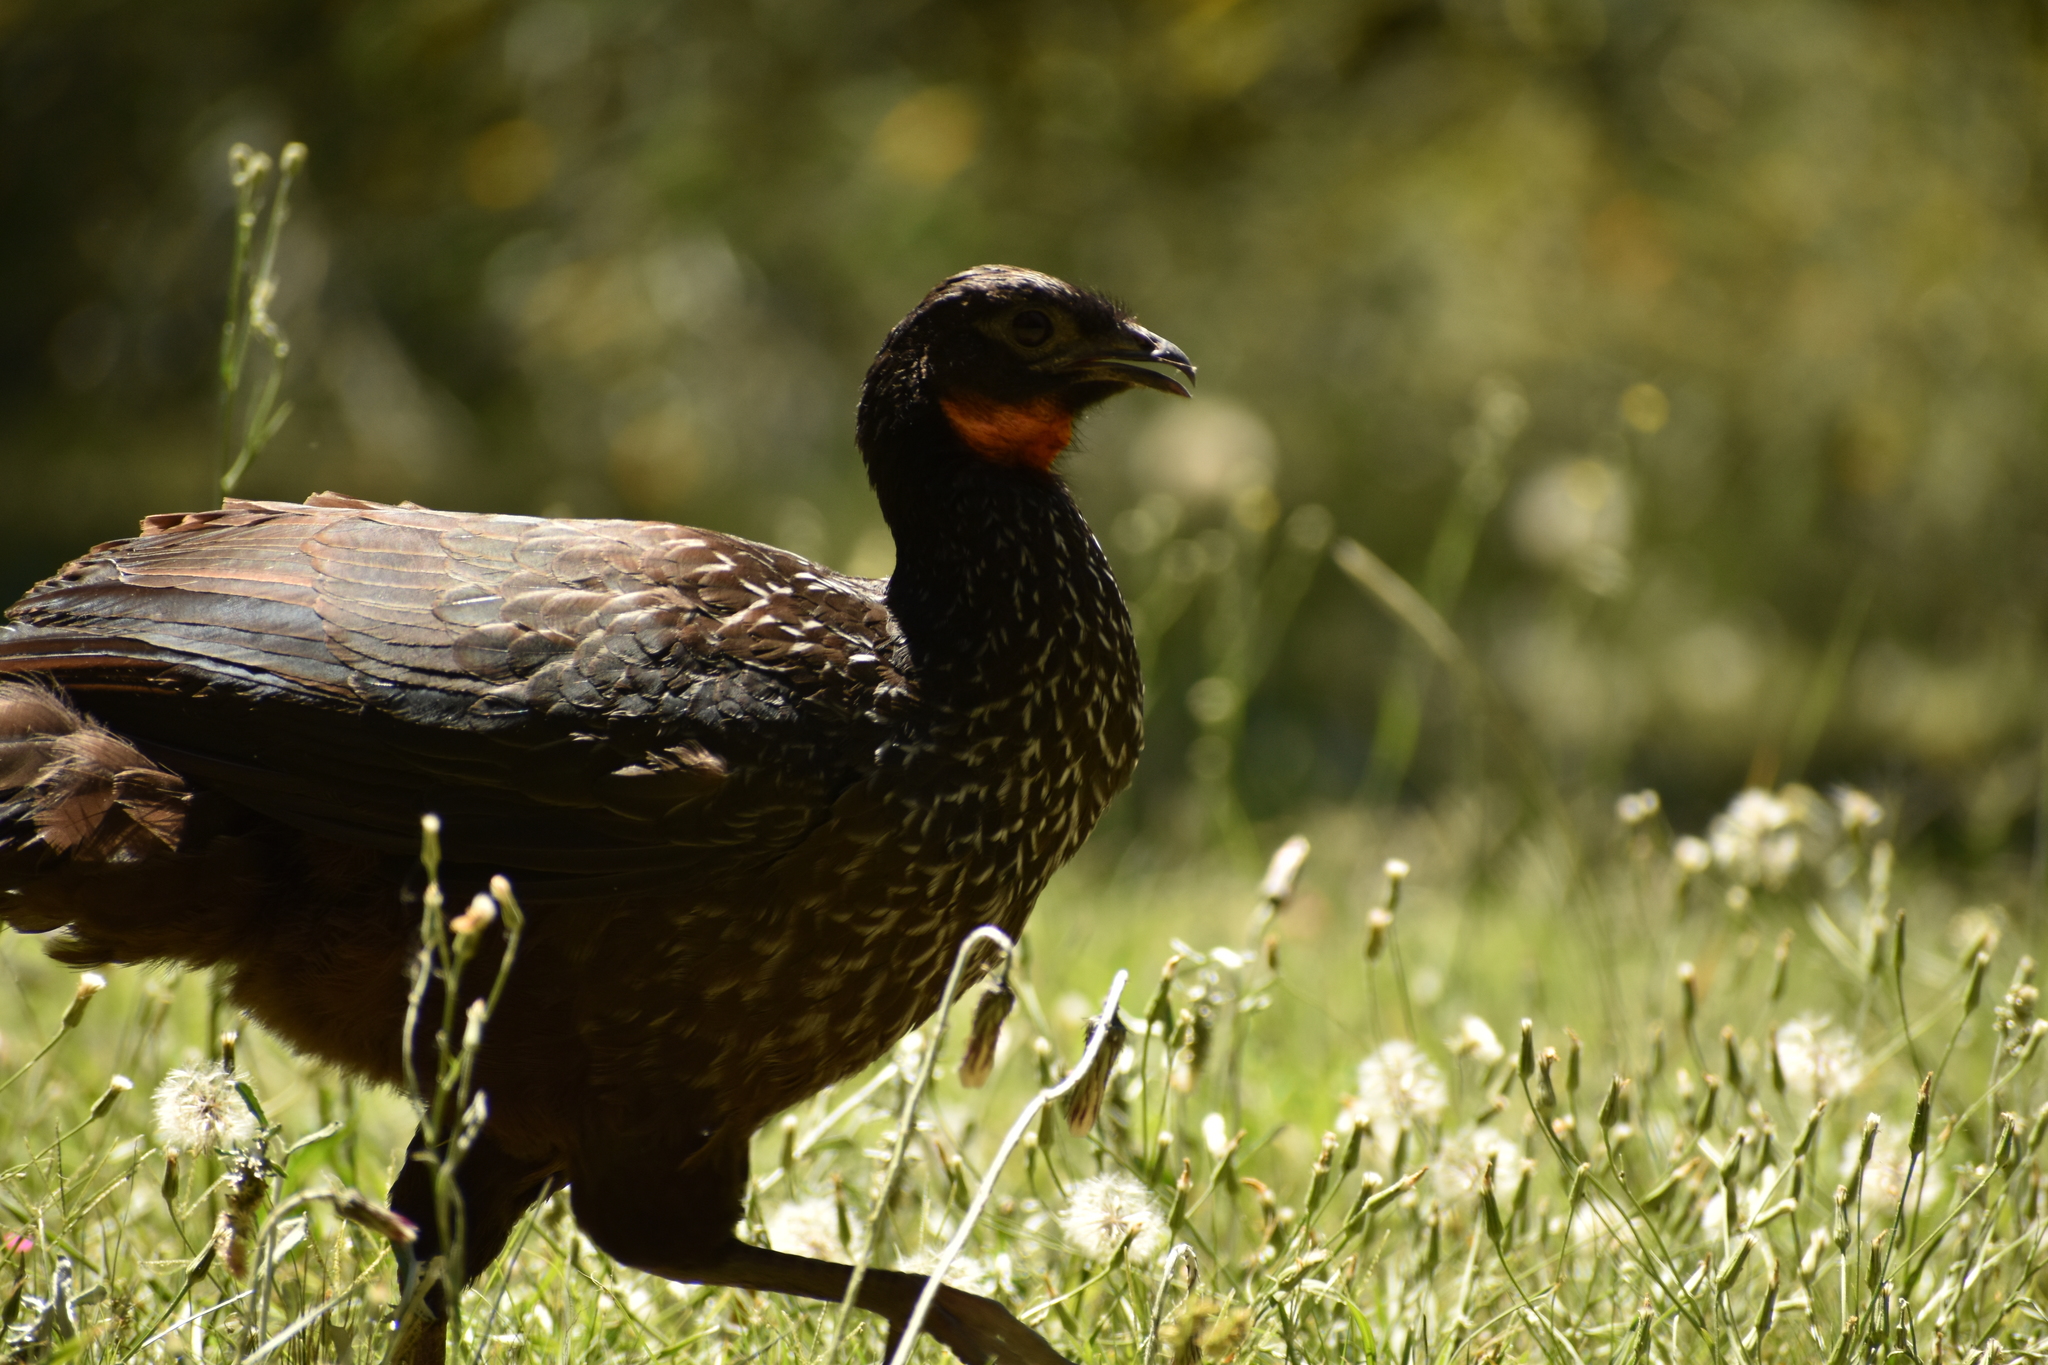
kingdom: Animalia
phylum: Chordata
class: Aves
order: Galliformes
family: Cracidae
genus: Penelope
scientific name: Penelope obscura
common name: Dusky-legged guan
